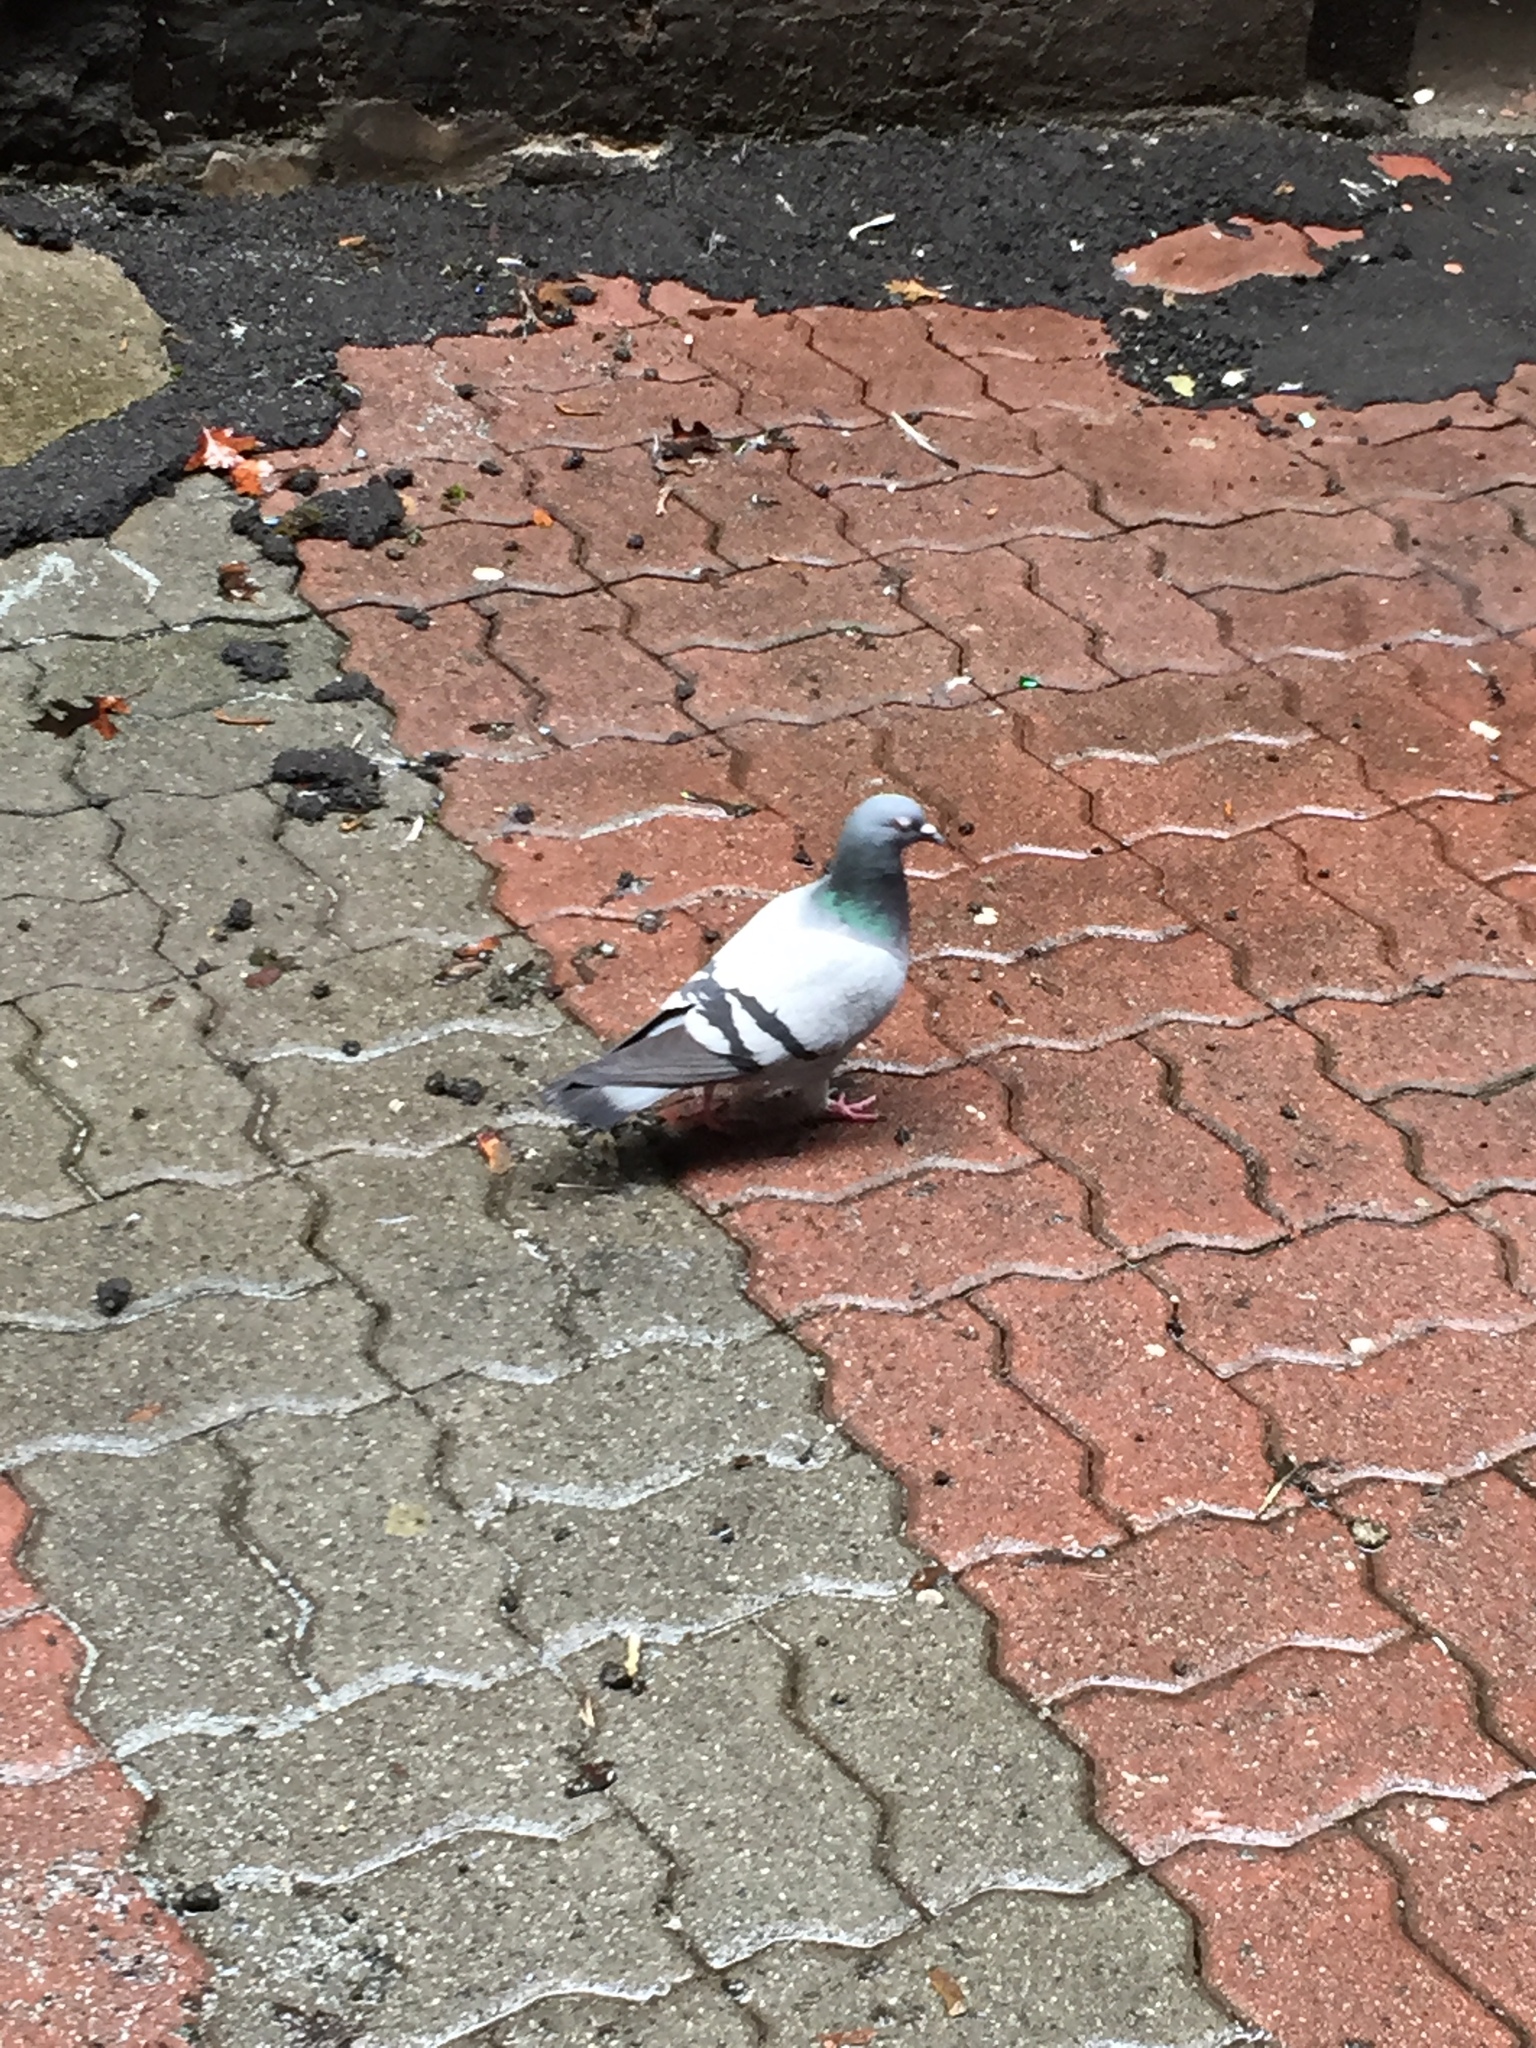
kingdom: Animalia
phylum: Chordata
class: Aves
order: Columbiformes
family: Columbidae
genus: Columba
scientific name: Columba livia
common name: Rock pigeon
